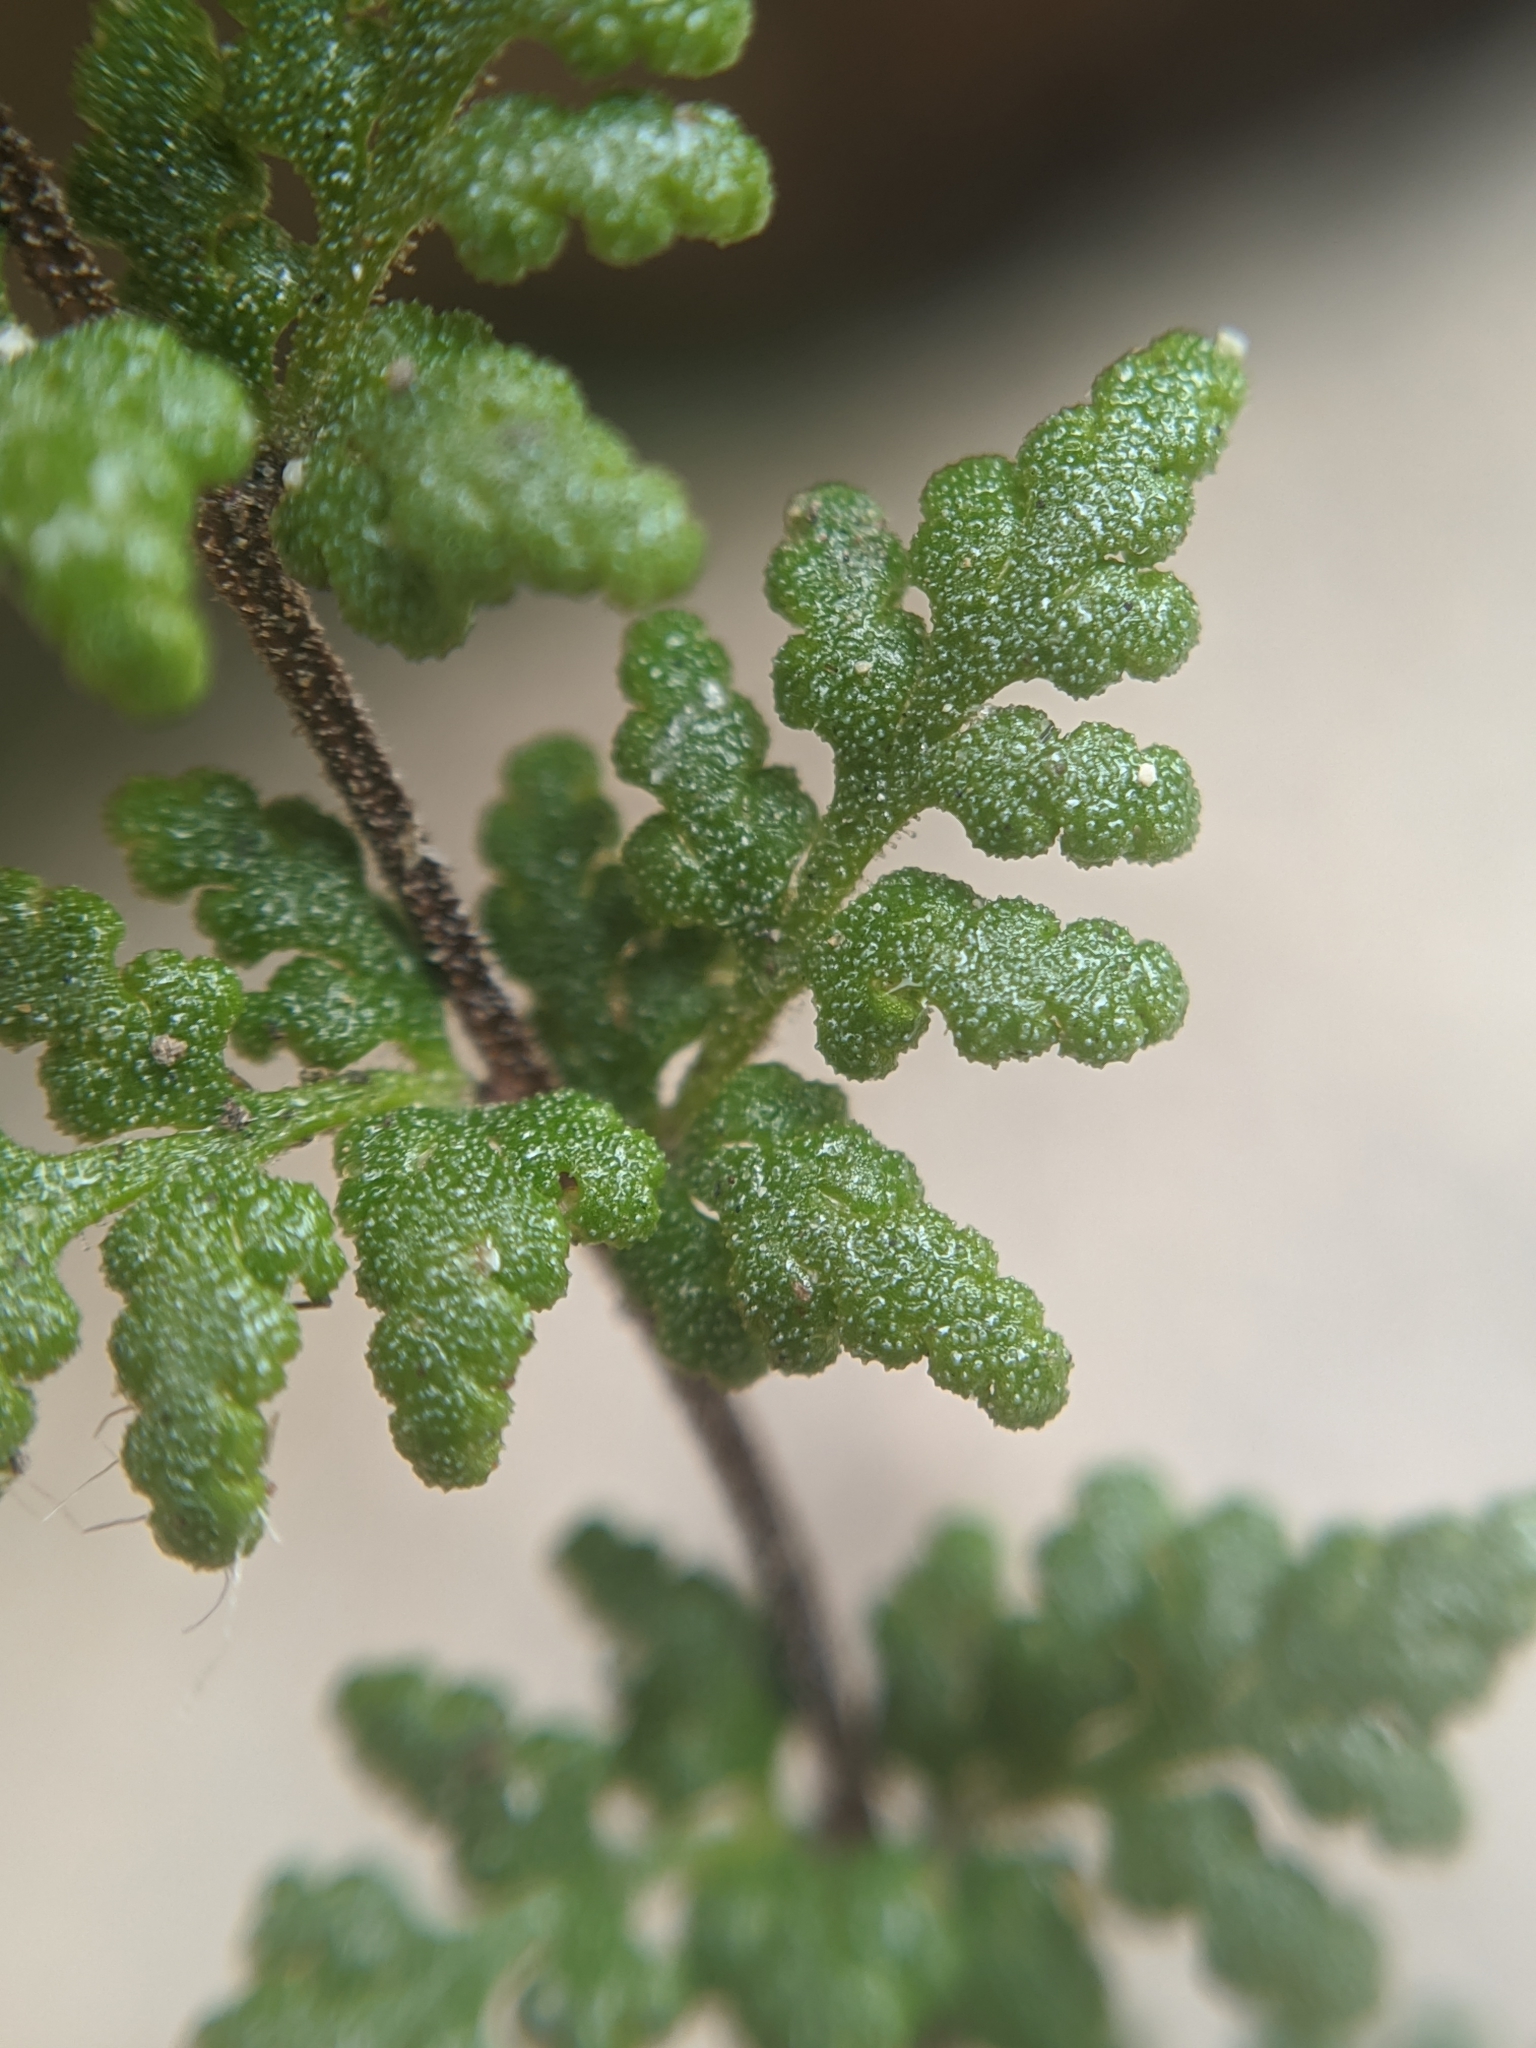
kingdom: Plantae
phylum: Tracheophyta
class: Polypodiopsida
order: Polypodiales
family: Pteridaceae
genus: Myriopteris
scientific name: Myriopteris viscida
